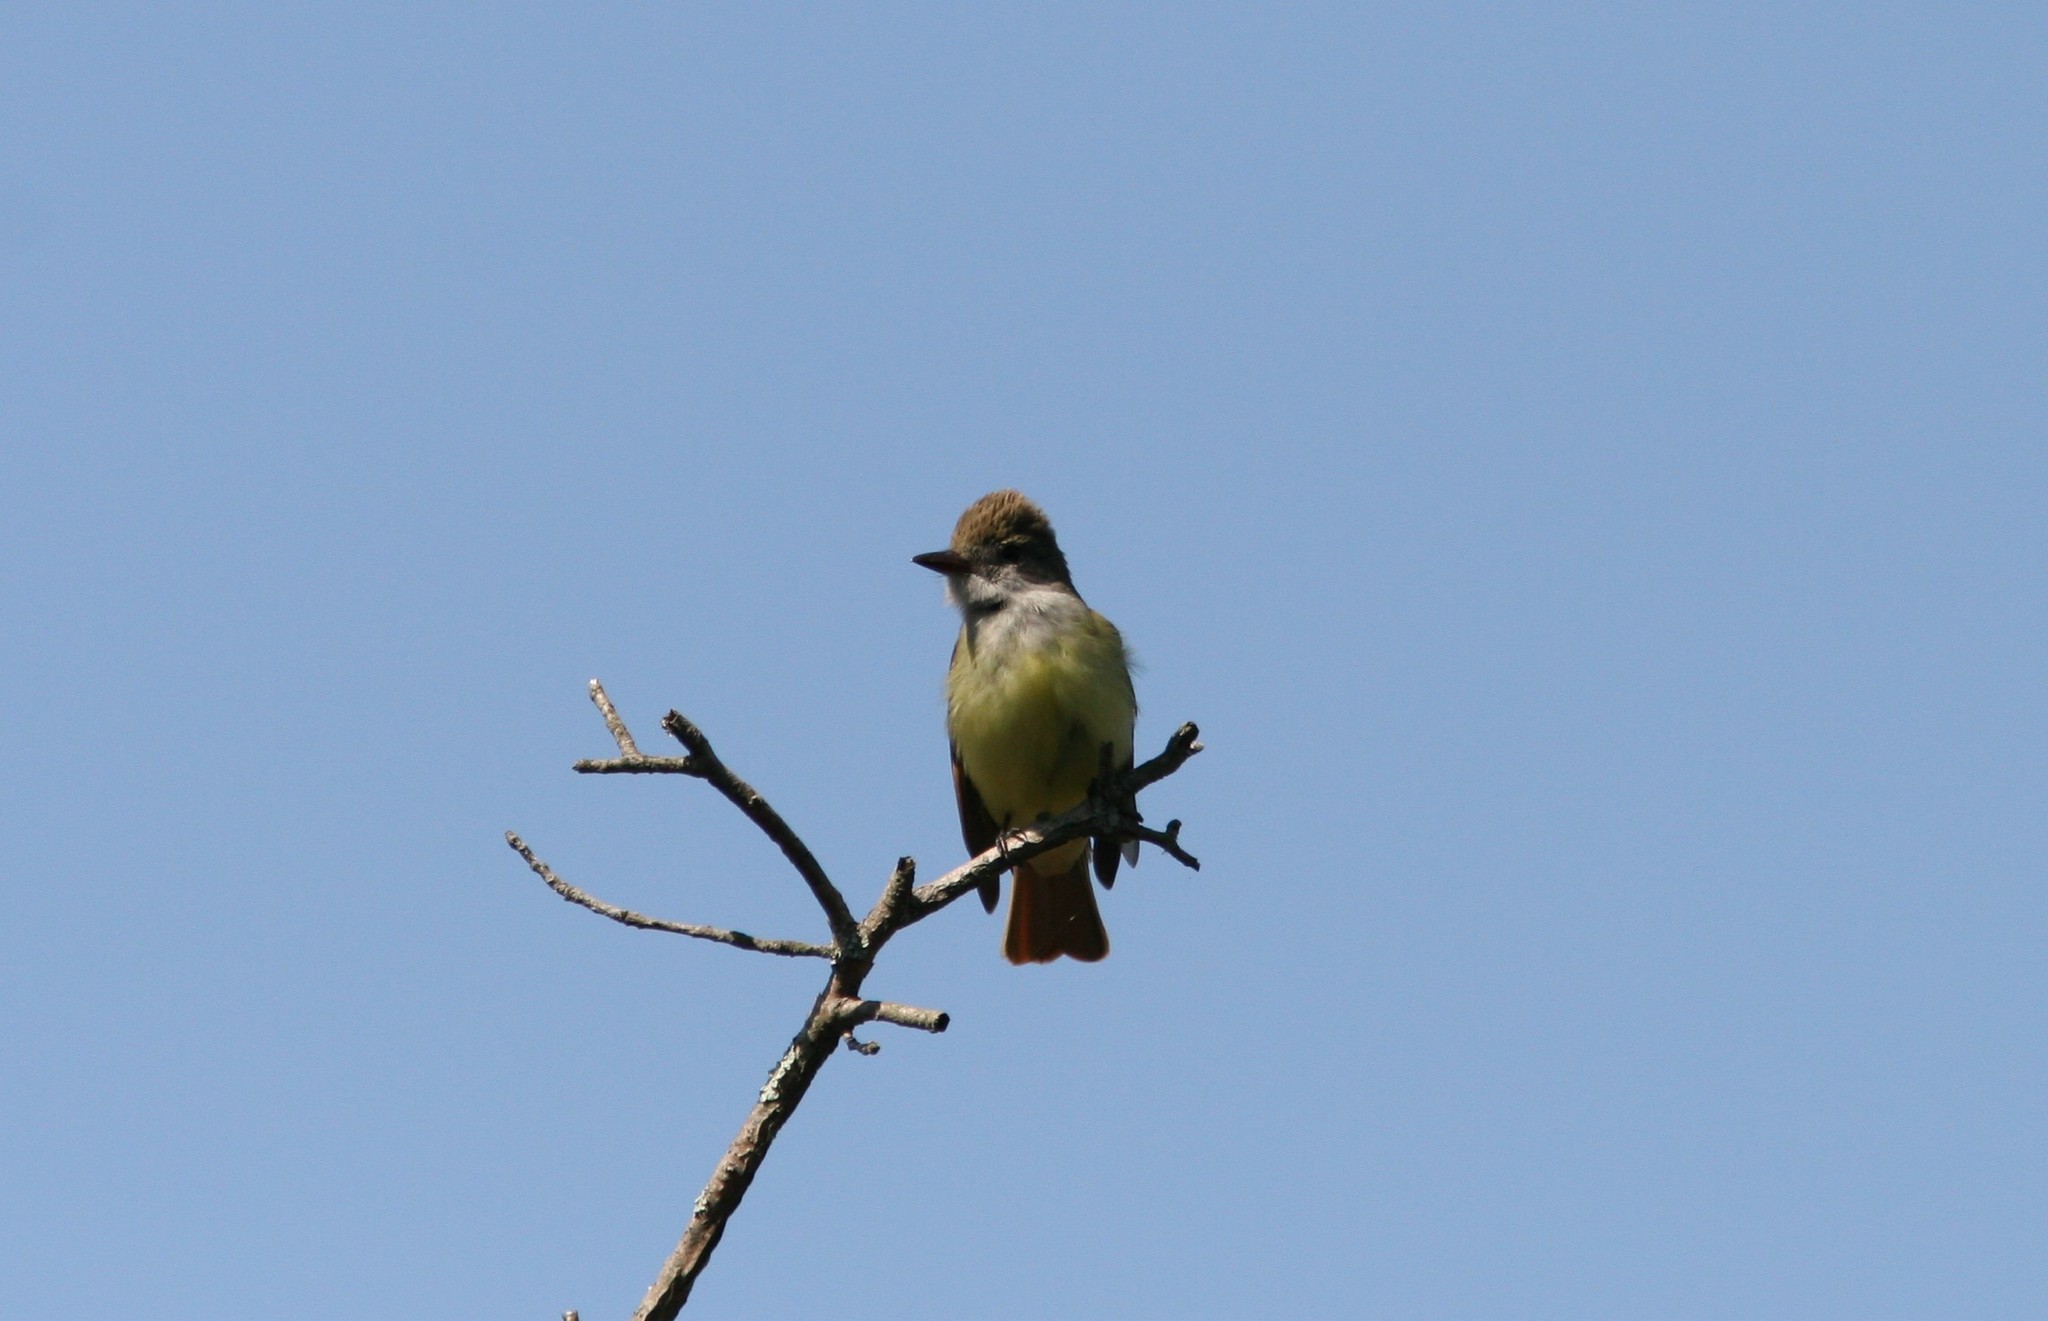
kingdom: Animalia
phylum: Chordata
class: Aves
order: Passeriformes
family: Tyrannidae
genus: Myiarchus
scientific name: Myiarchus crinitus
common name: Great crested flycatcher
